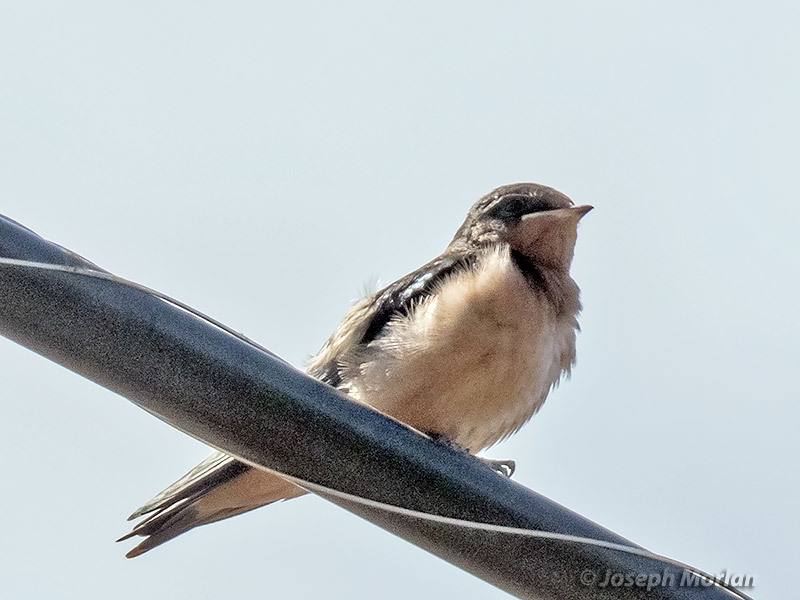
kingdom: Animalia
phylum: Chordata
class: Aves
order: Passeriformes
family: Hirundinidae
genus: Hirundo
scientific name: Hirundo rustica
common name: Barn swallow
